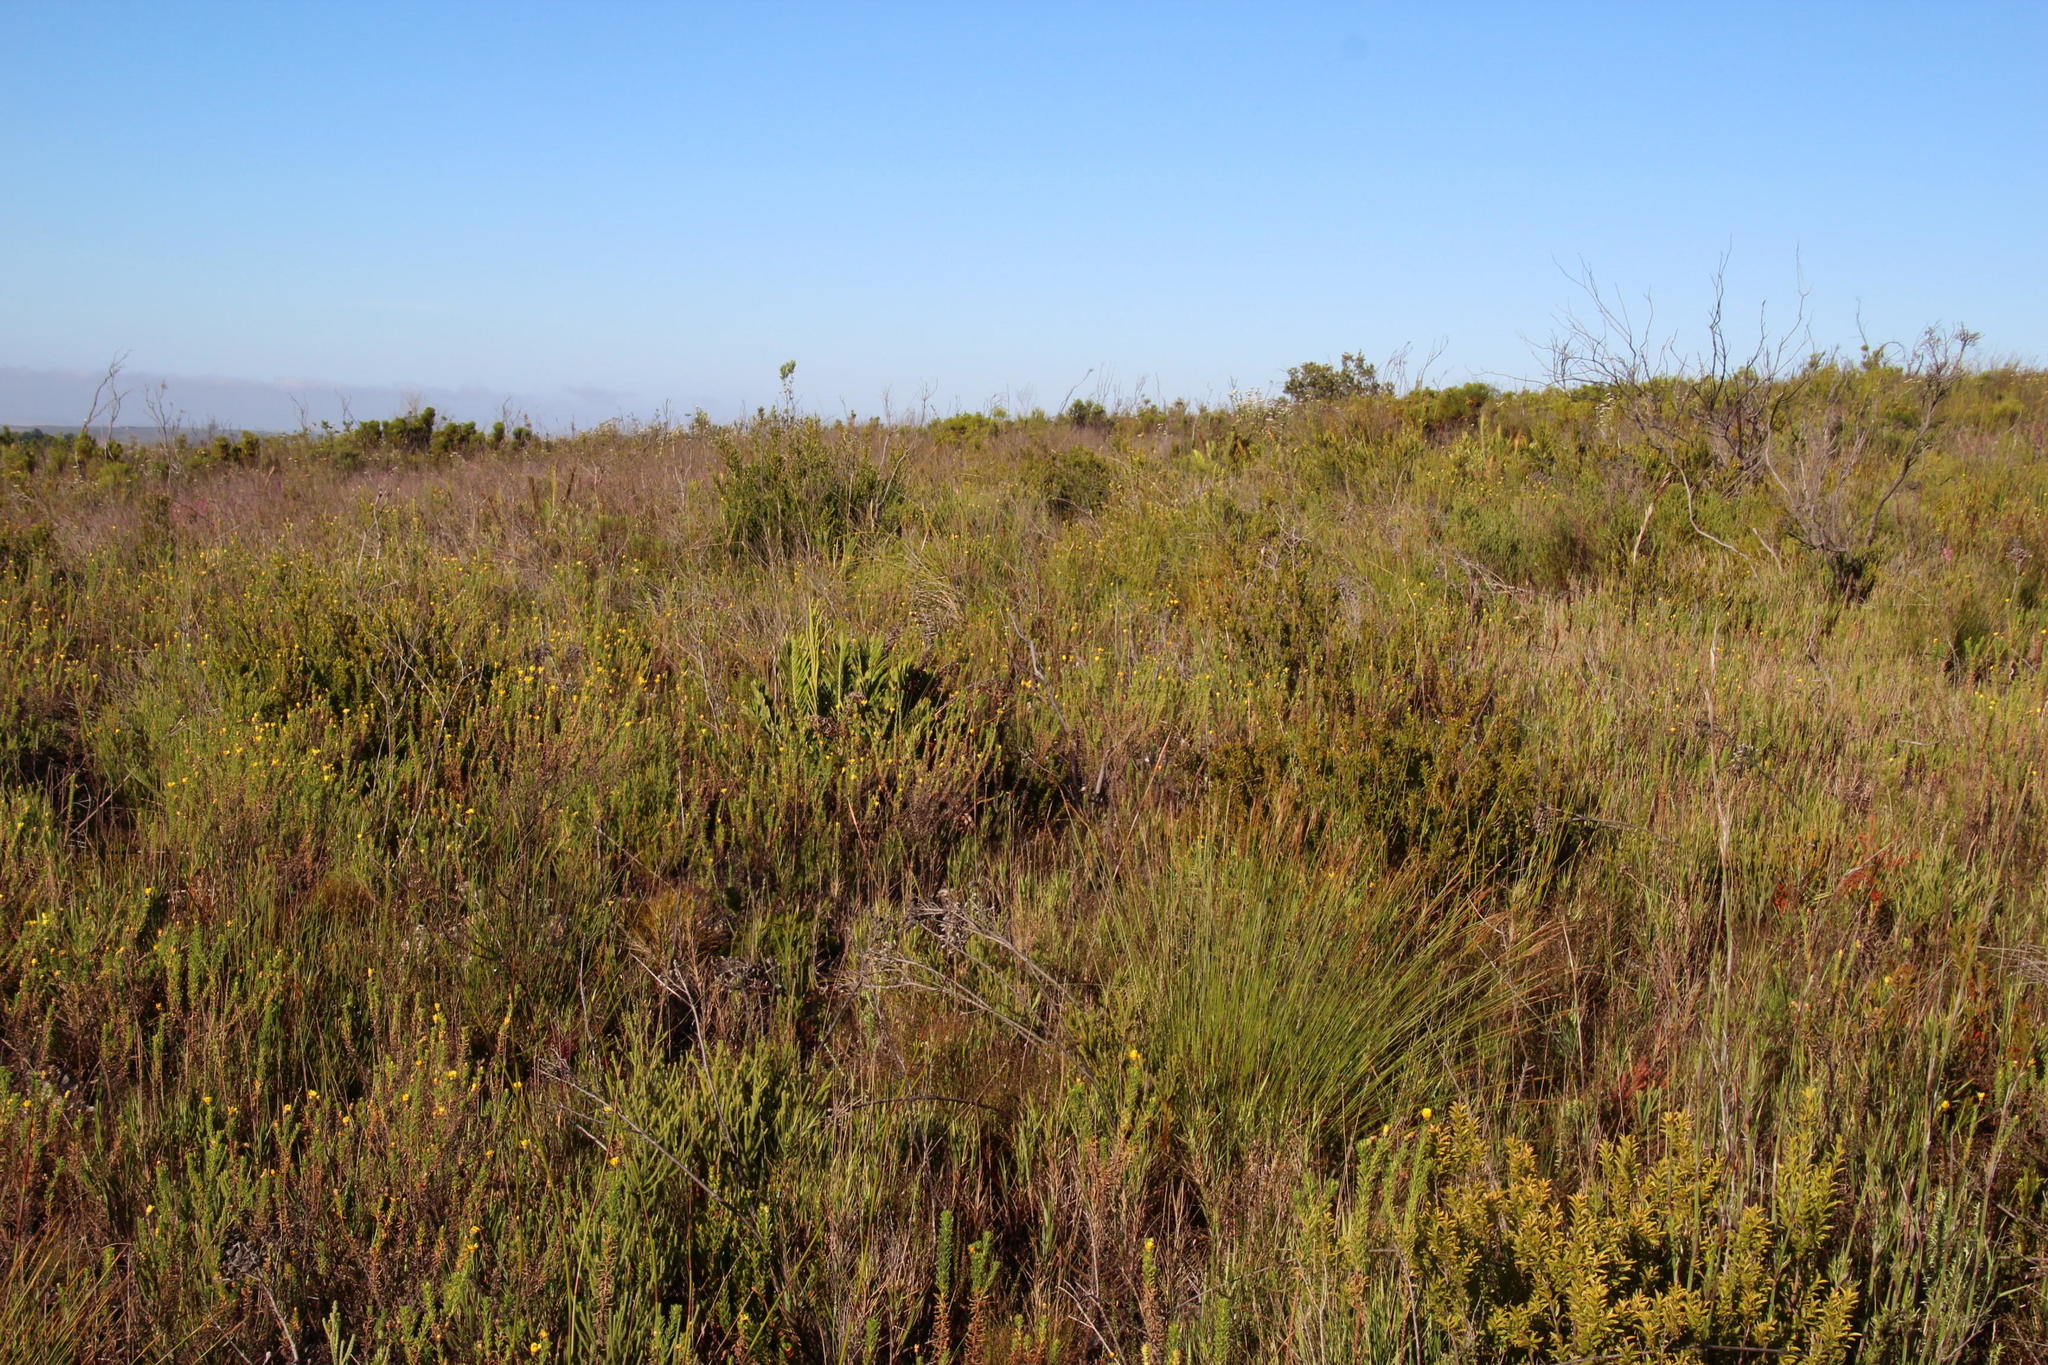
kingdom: Plantae
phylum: Tracheophyta
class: Polypodiopsida
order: Polypodiales
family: Blechnaceae
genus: Lomariocycas
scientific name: Lomariocycas tabularis
